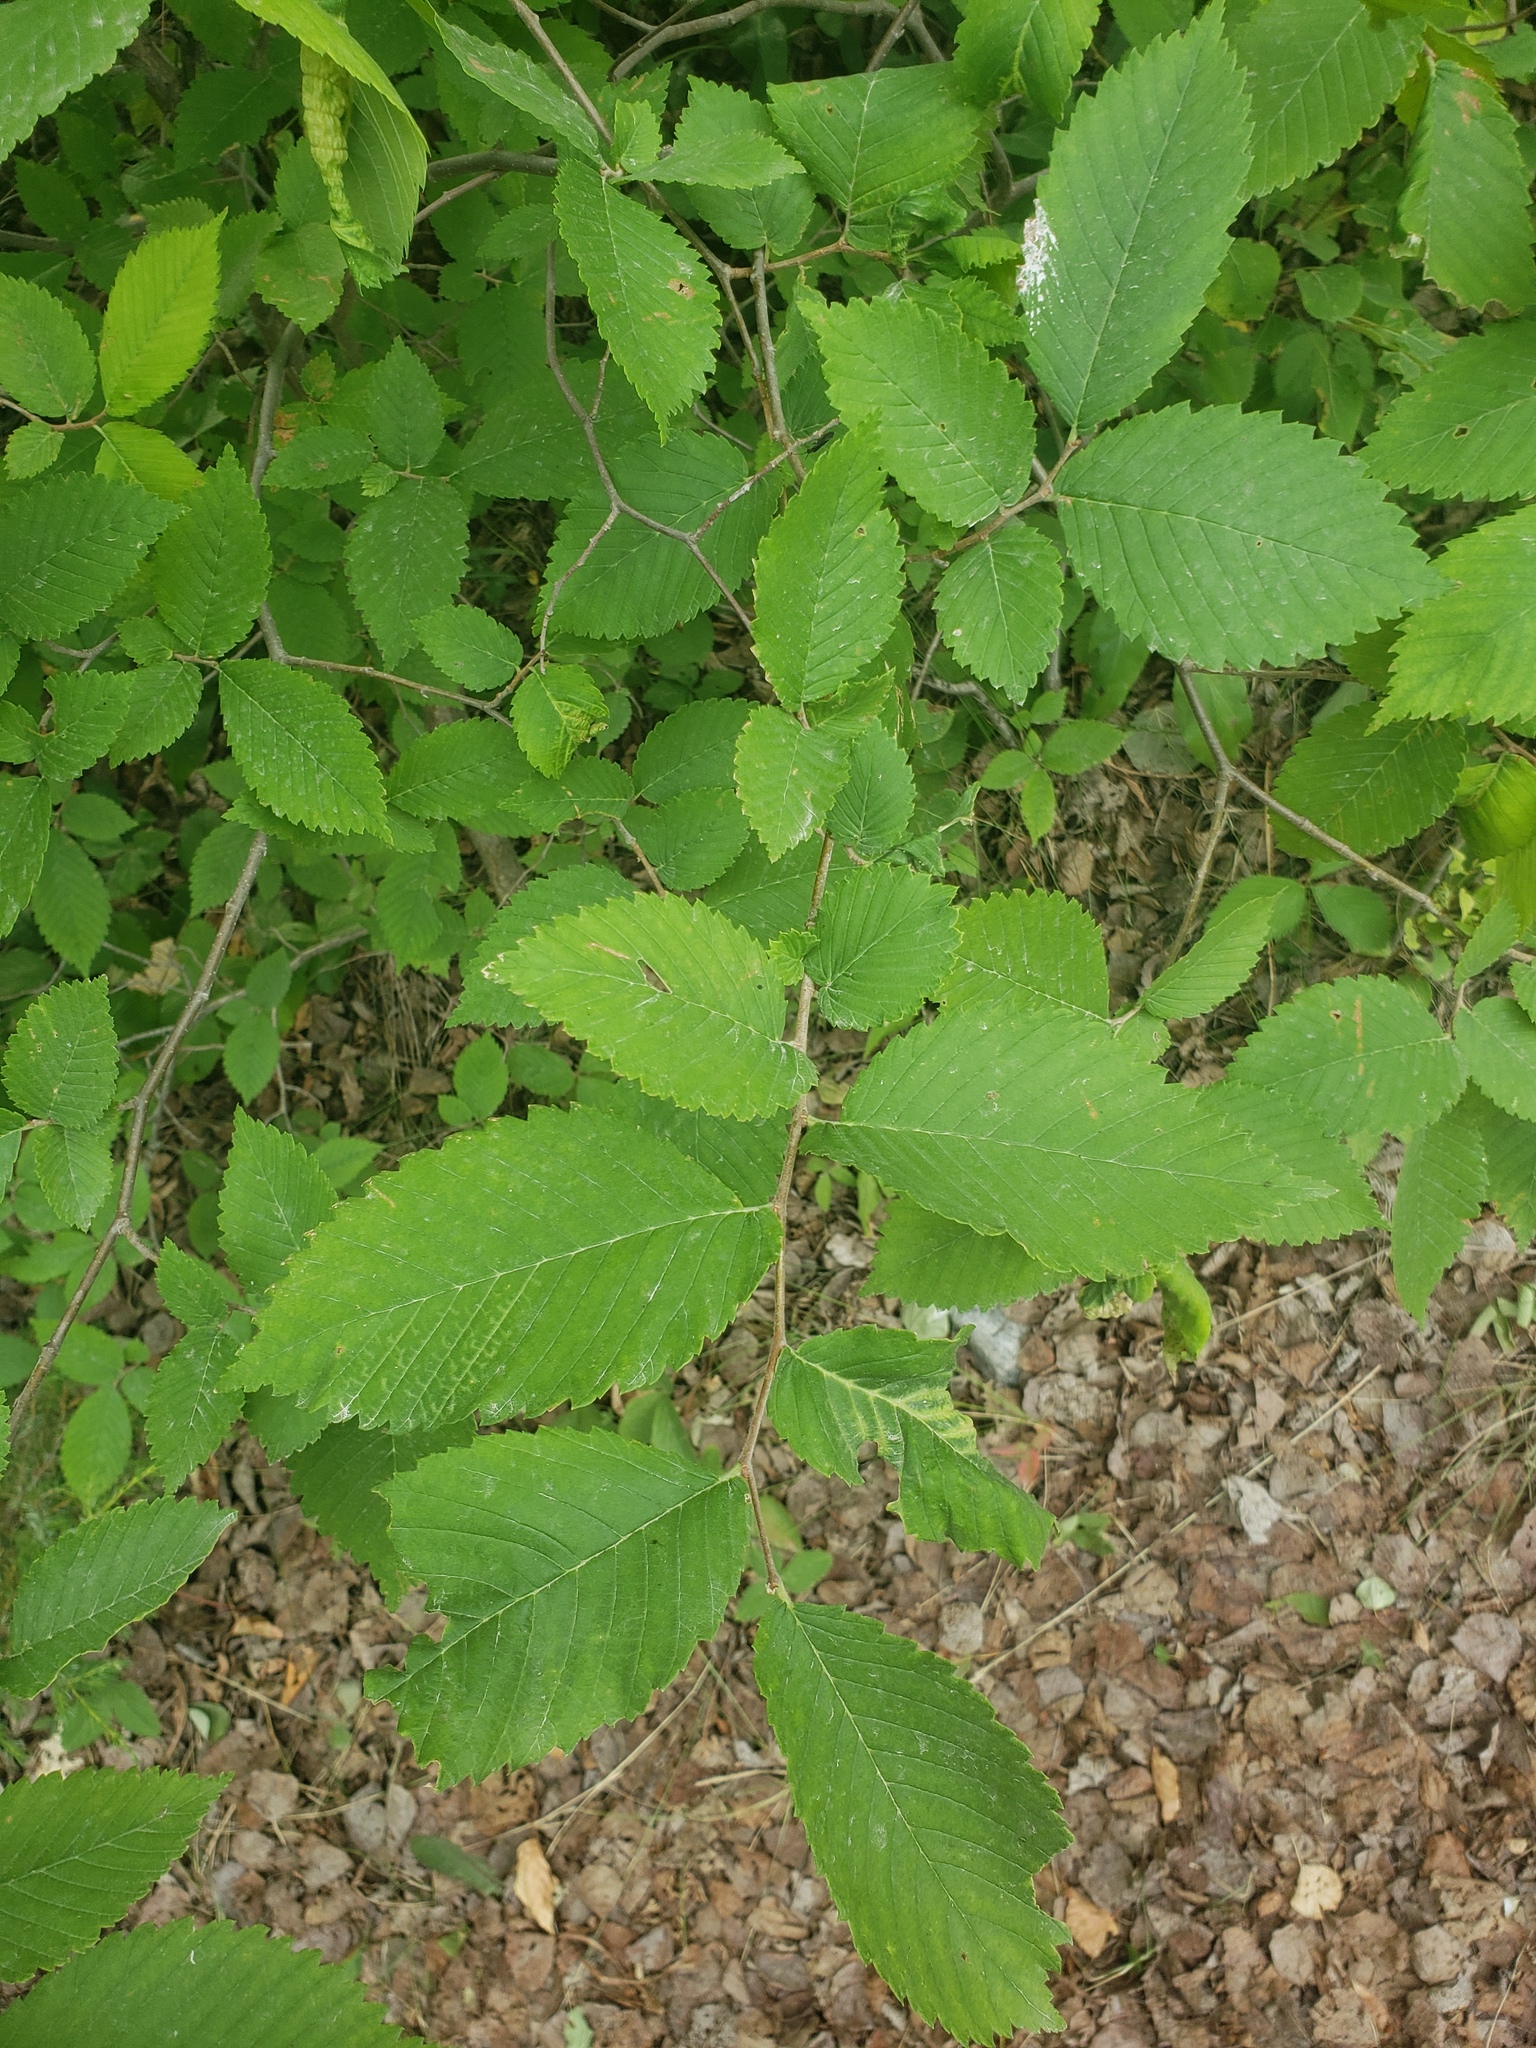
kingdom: Plantae
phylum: Tracheophyta
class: Magnoliopsida
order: Rosales
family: Ulmaceae
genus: Ulmus
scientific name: Ulmus americana
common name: American elm
